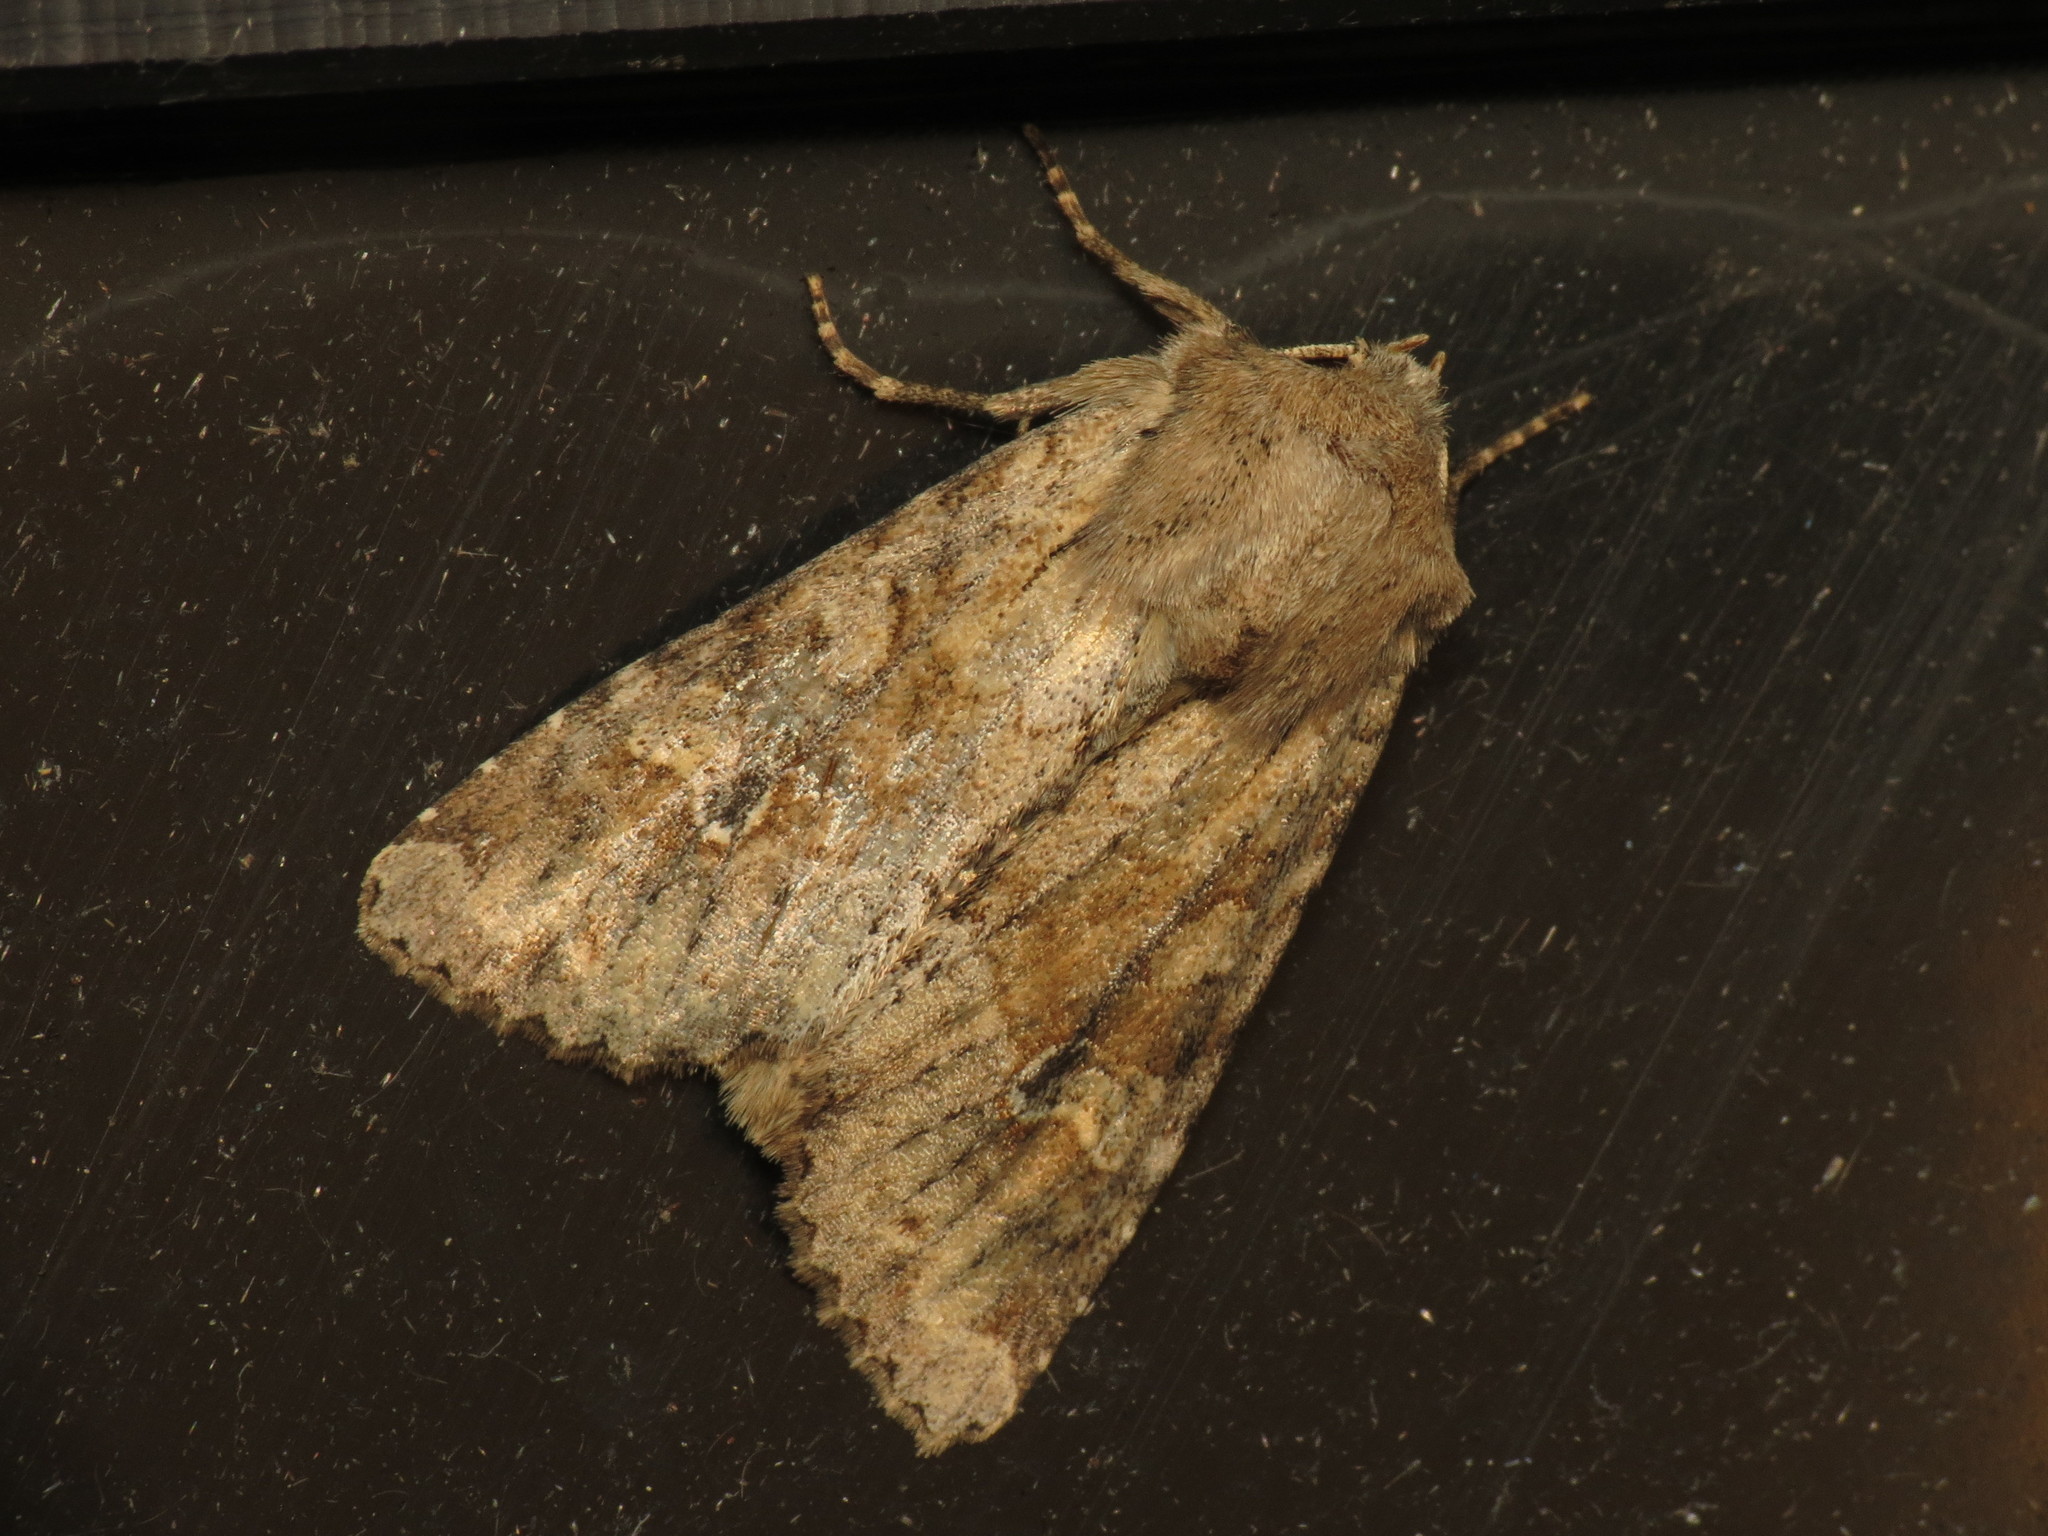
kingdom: Animalia
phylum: Arthropoda
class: Insecta
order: Lepidoptera
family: Noctuidae
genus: Apamea
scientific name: Apamea sordens
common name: Rustic shoulder-knot
